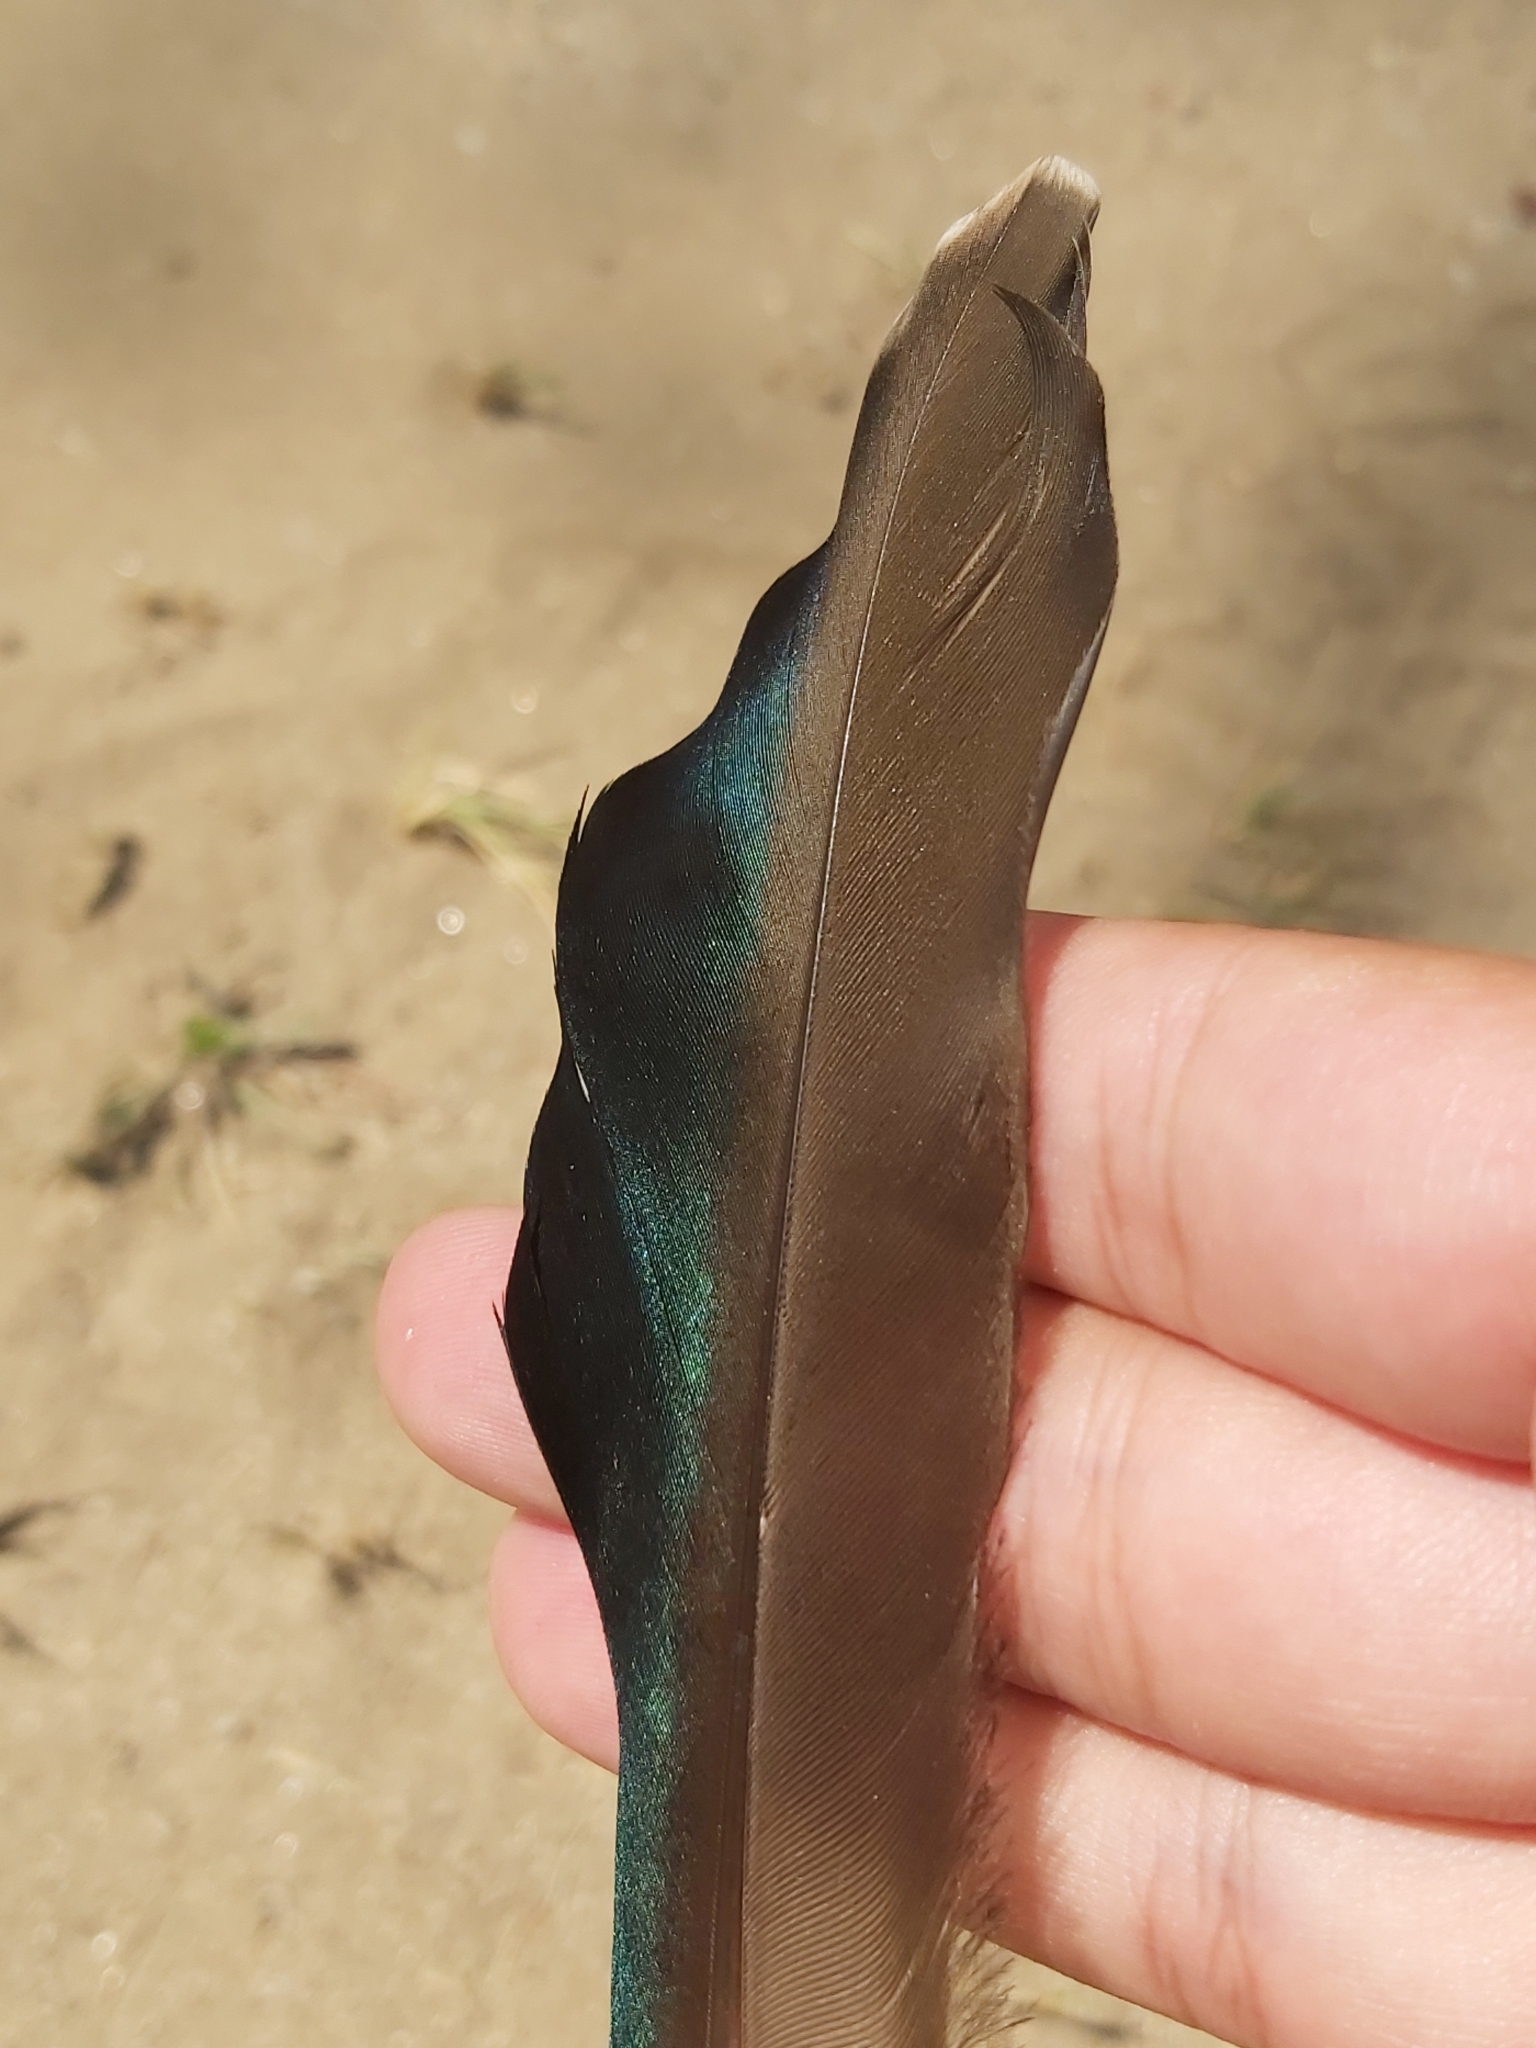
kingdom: Animalia
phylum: Chordata
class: Aves
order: Anseriformes
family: Anatidae
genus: Anas
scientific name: Anas superciliosa
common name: Pacific black duck
